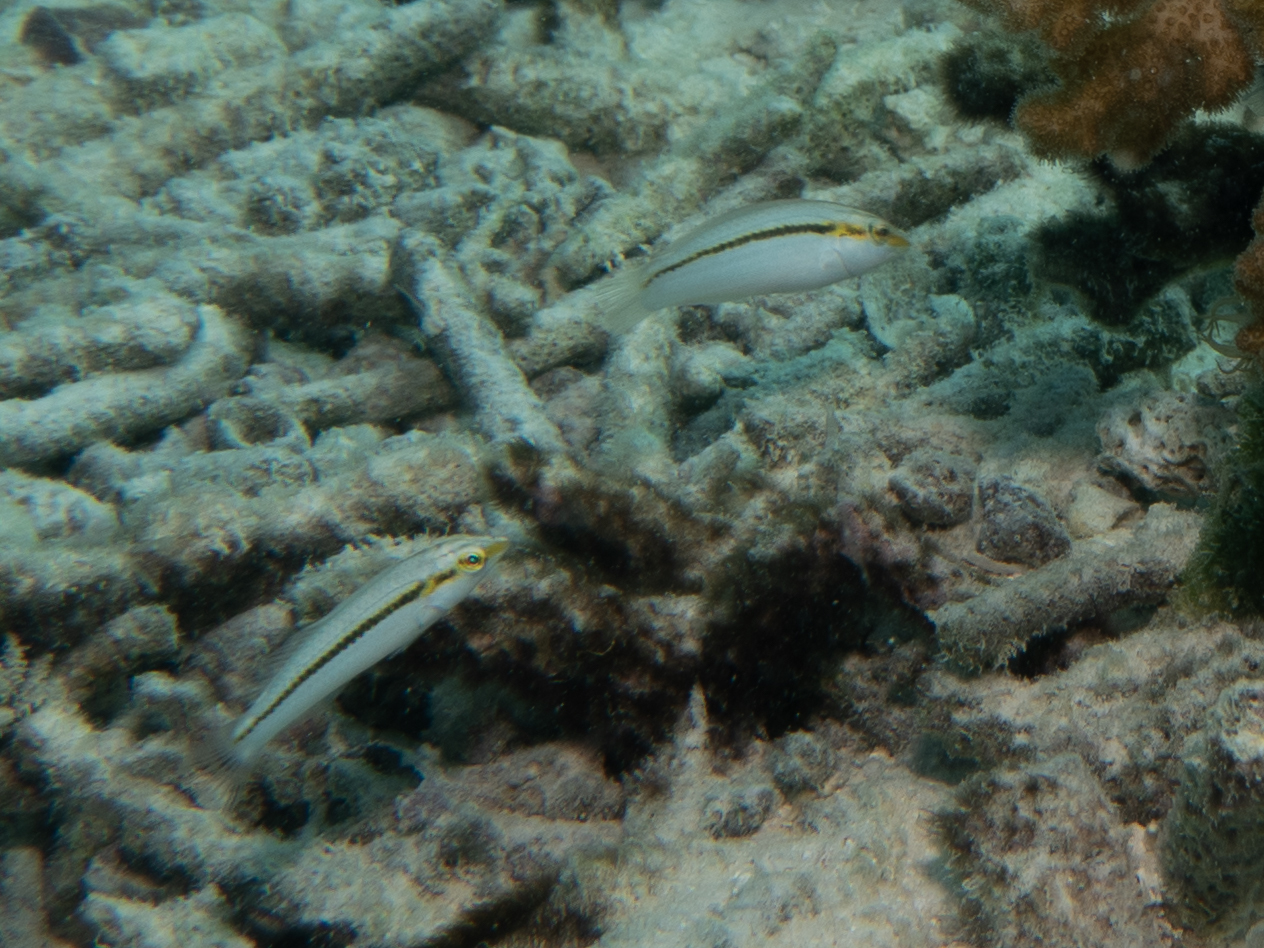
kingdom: Animalia
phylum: Chordata
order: Perciformes
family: Labridae
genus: Halichoeres
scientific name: Halichoeres scapularis
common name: Brownbanded wrasse
